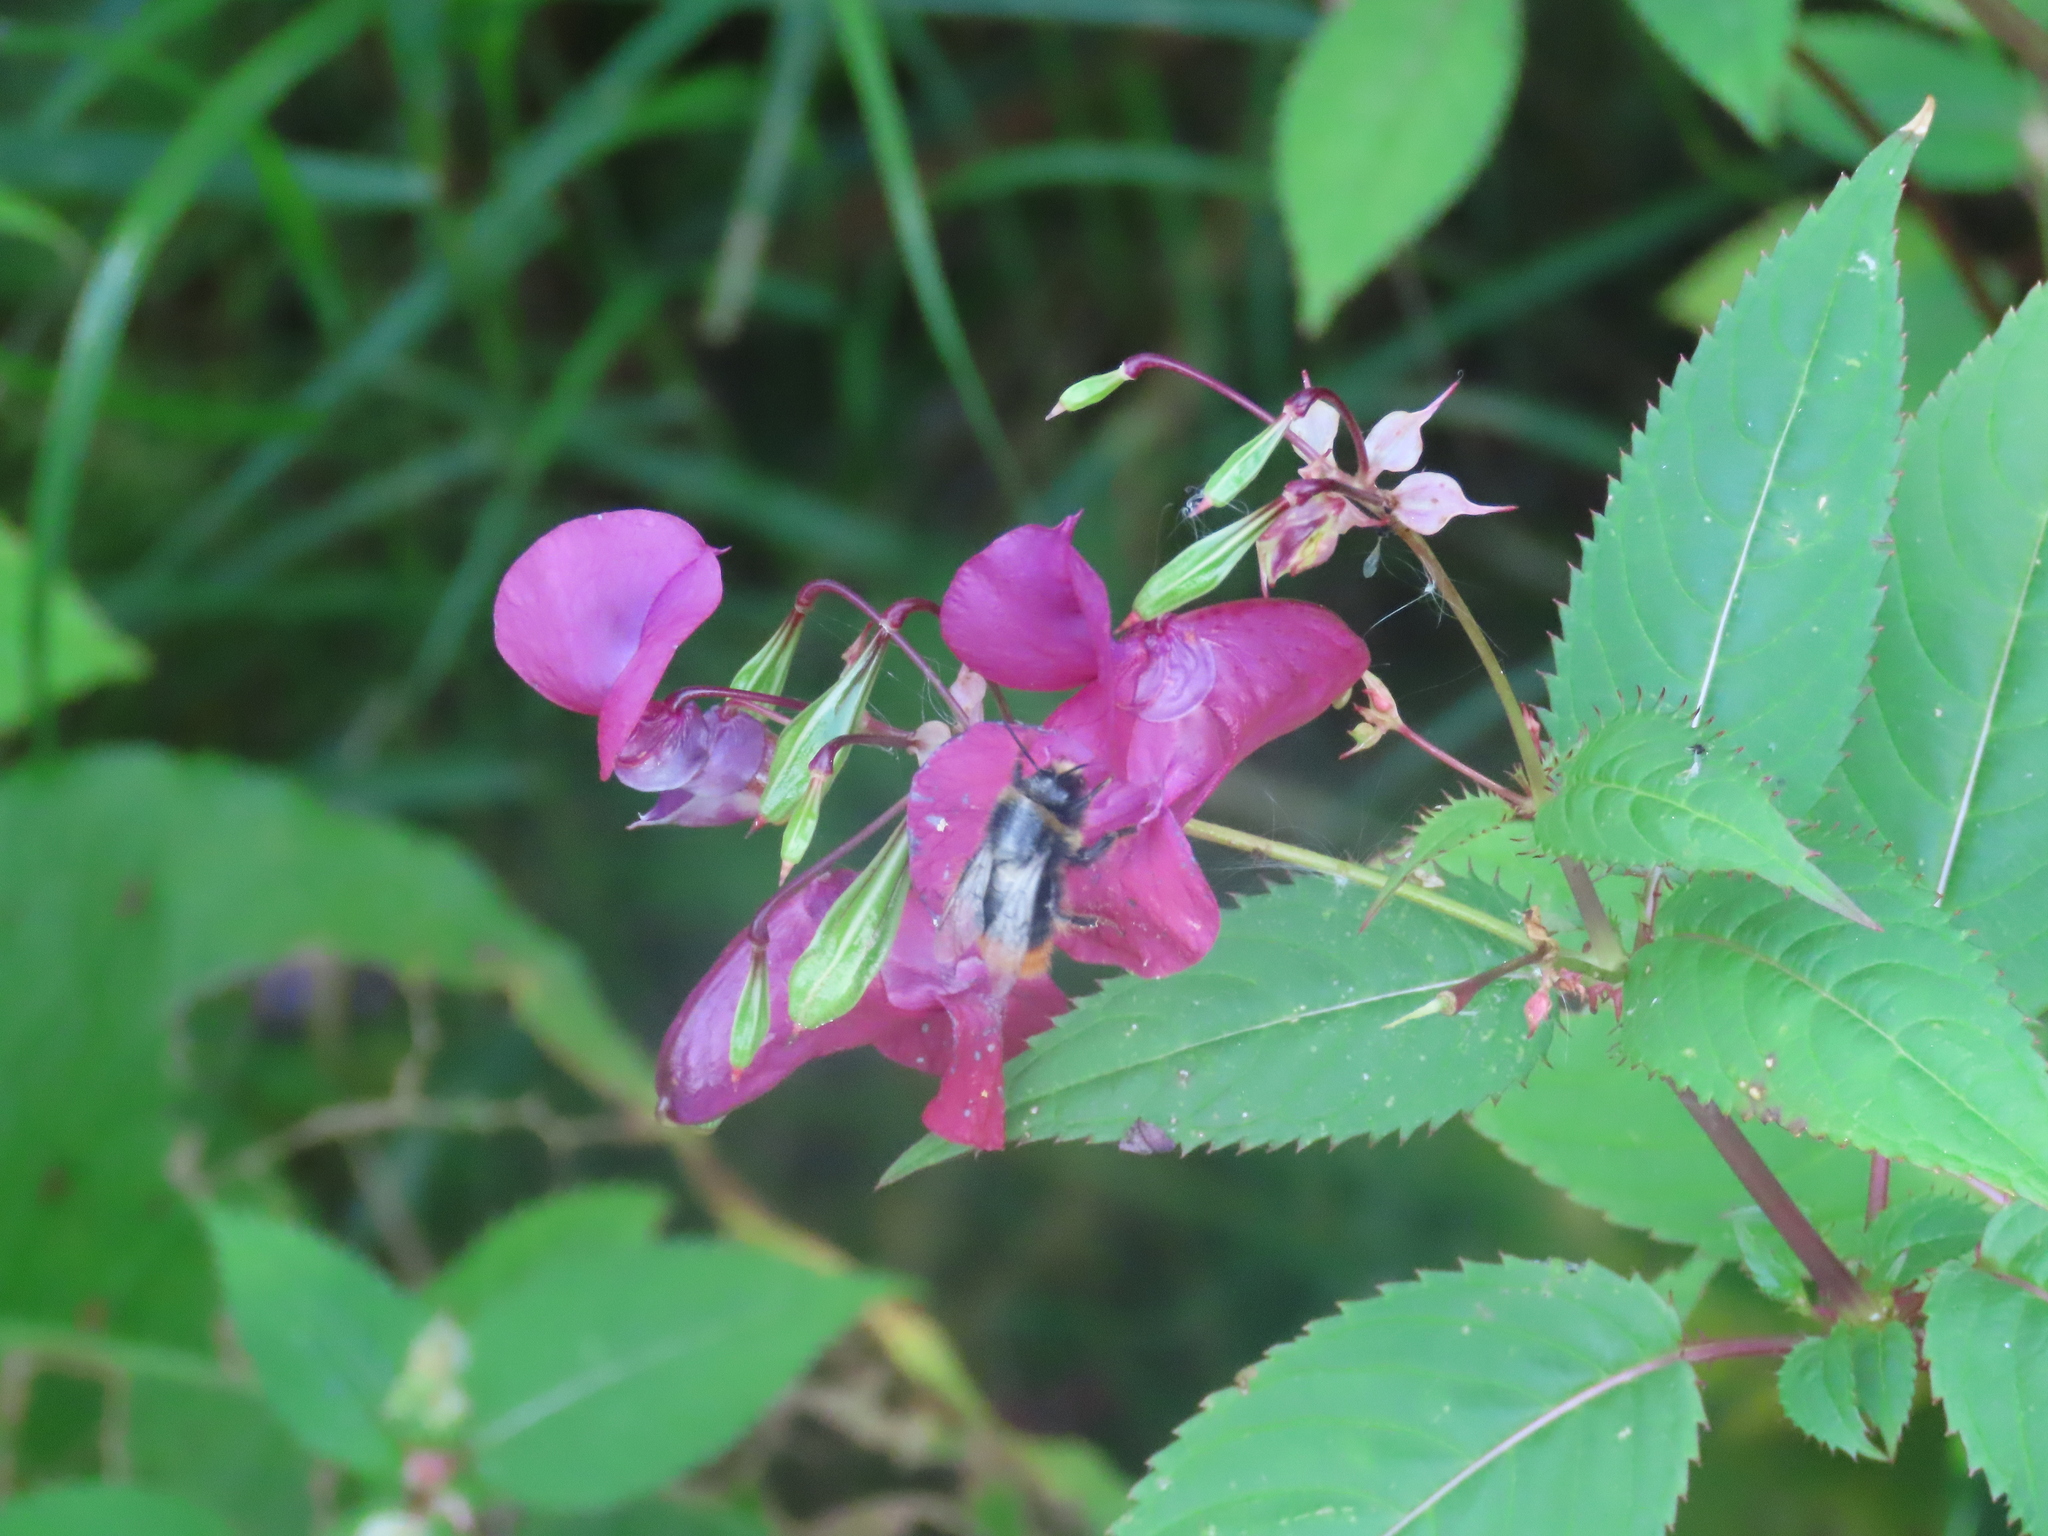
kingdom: Animalia
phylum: Arthropoda
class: Insecta
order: Hymenoptera
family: Apidae
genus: Bombus
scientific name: Bombus lapidarius
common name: Large red-tailed humble-bee
